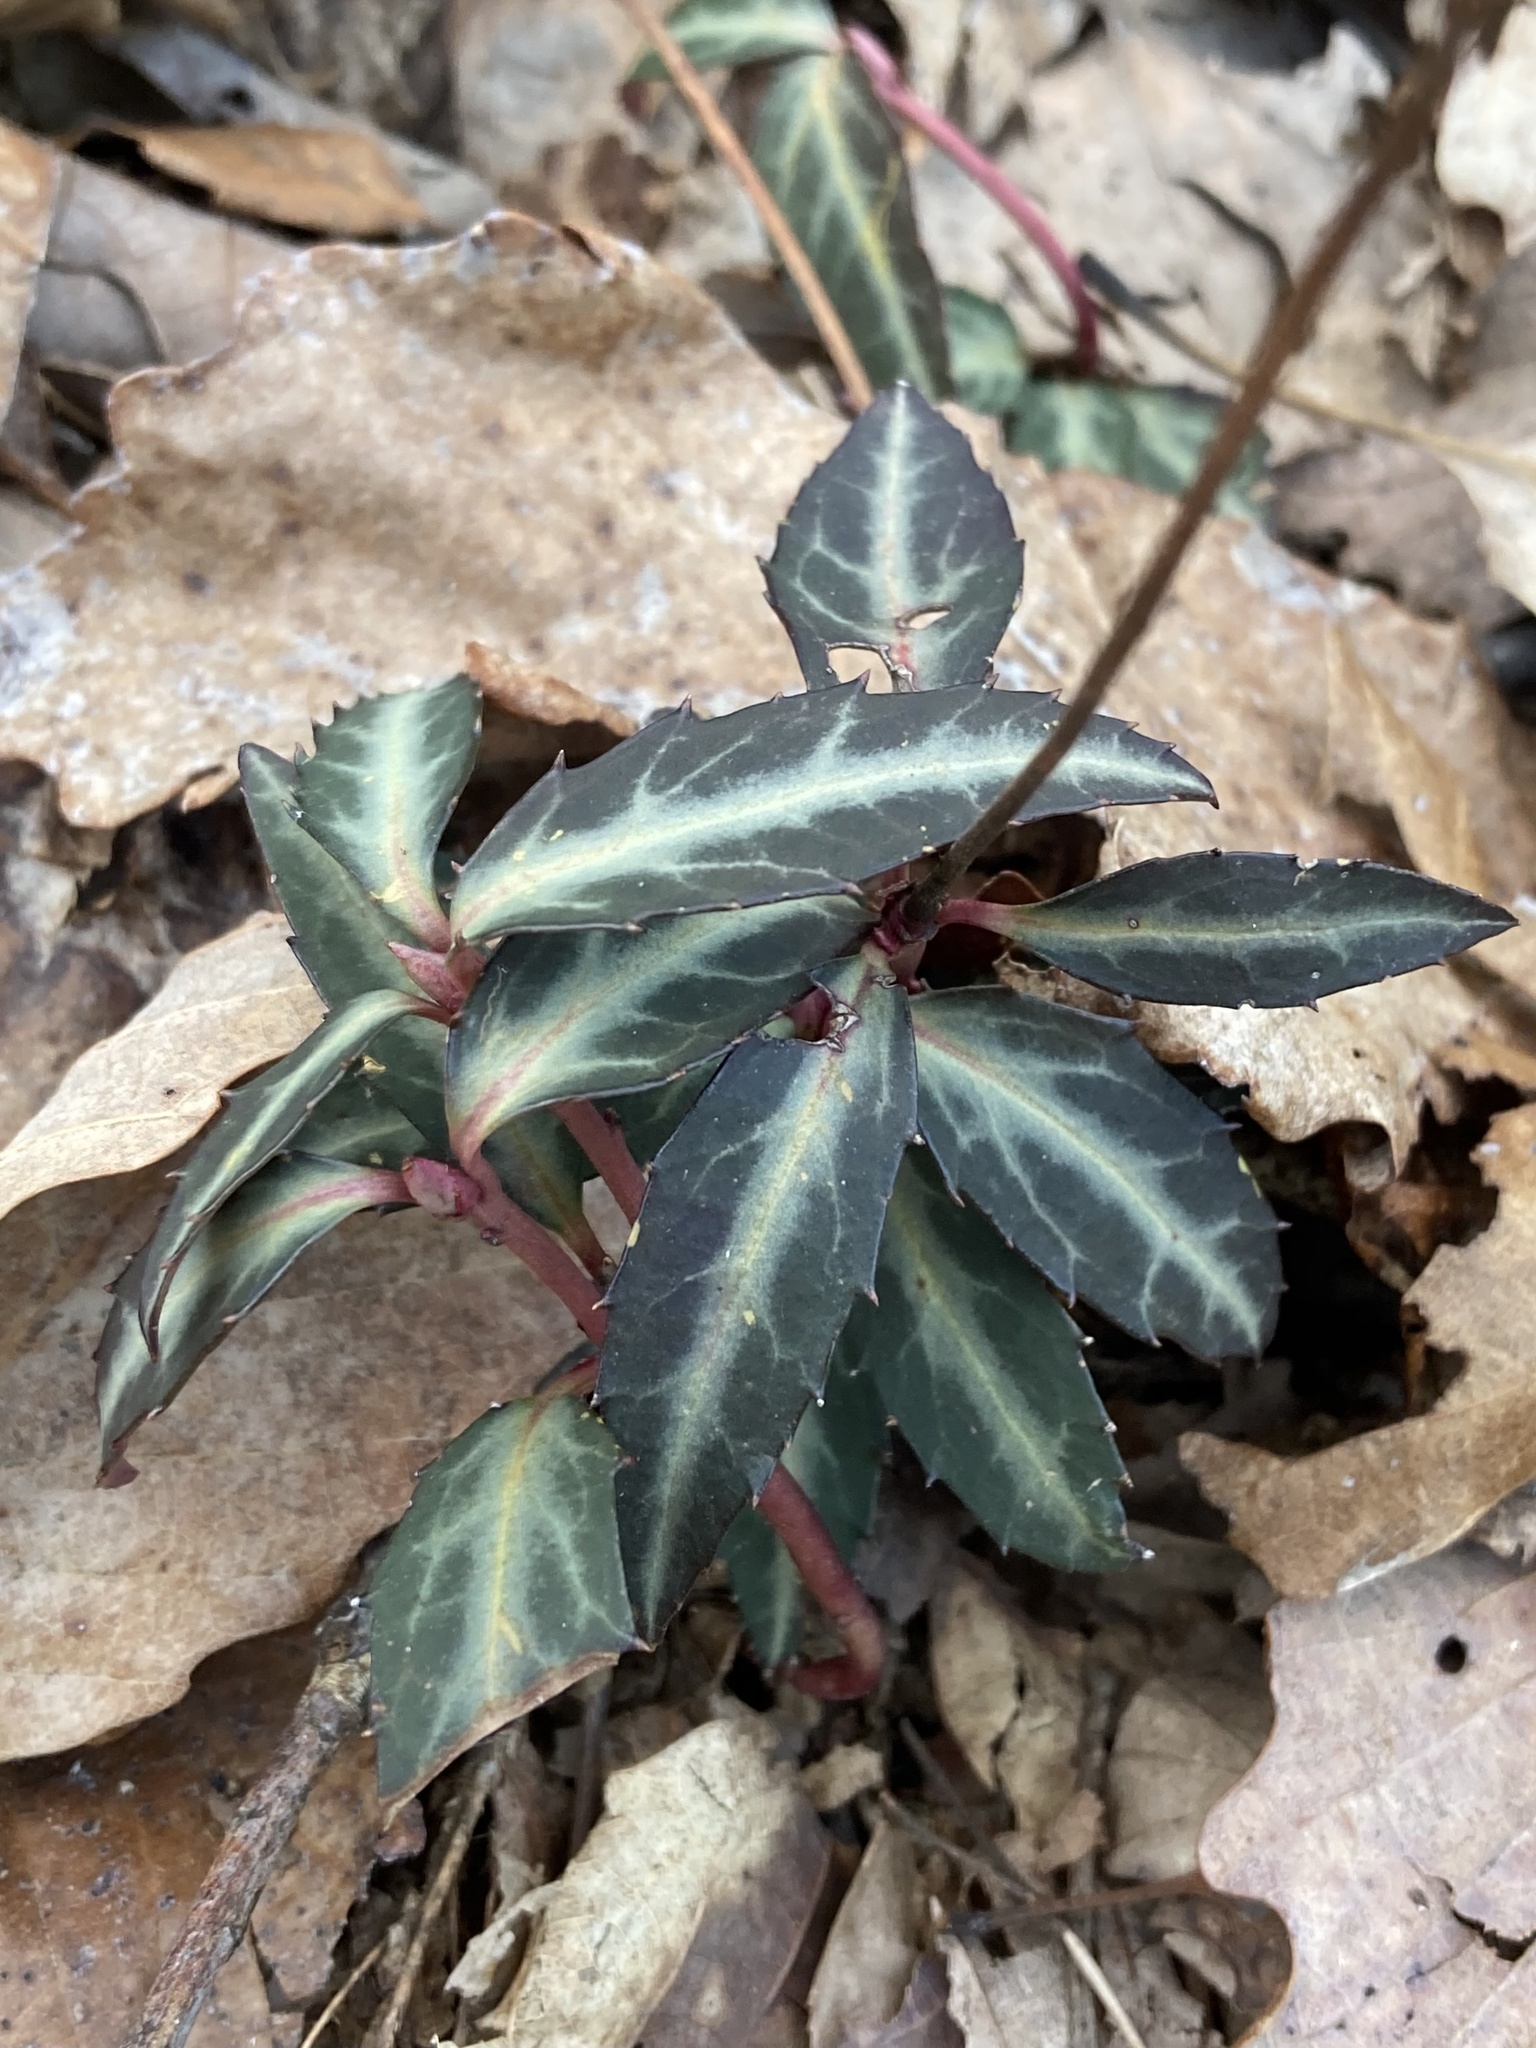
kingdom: Plantae
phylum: Tracheophyta
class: Magnoliopsida
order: Ericales
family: Ericaceae
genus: Chimaphila
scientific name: Chimaphila maculata
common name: Spotted pipsissewa
